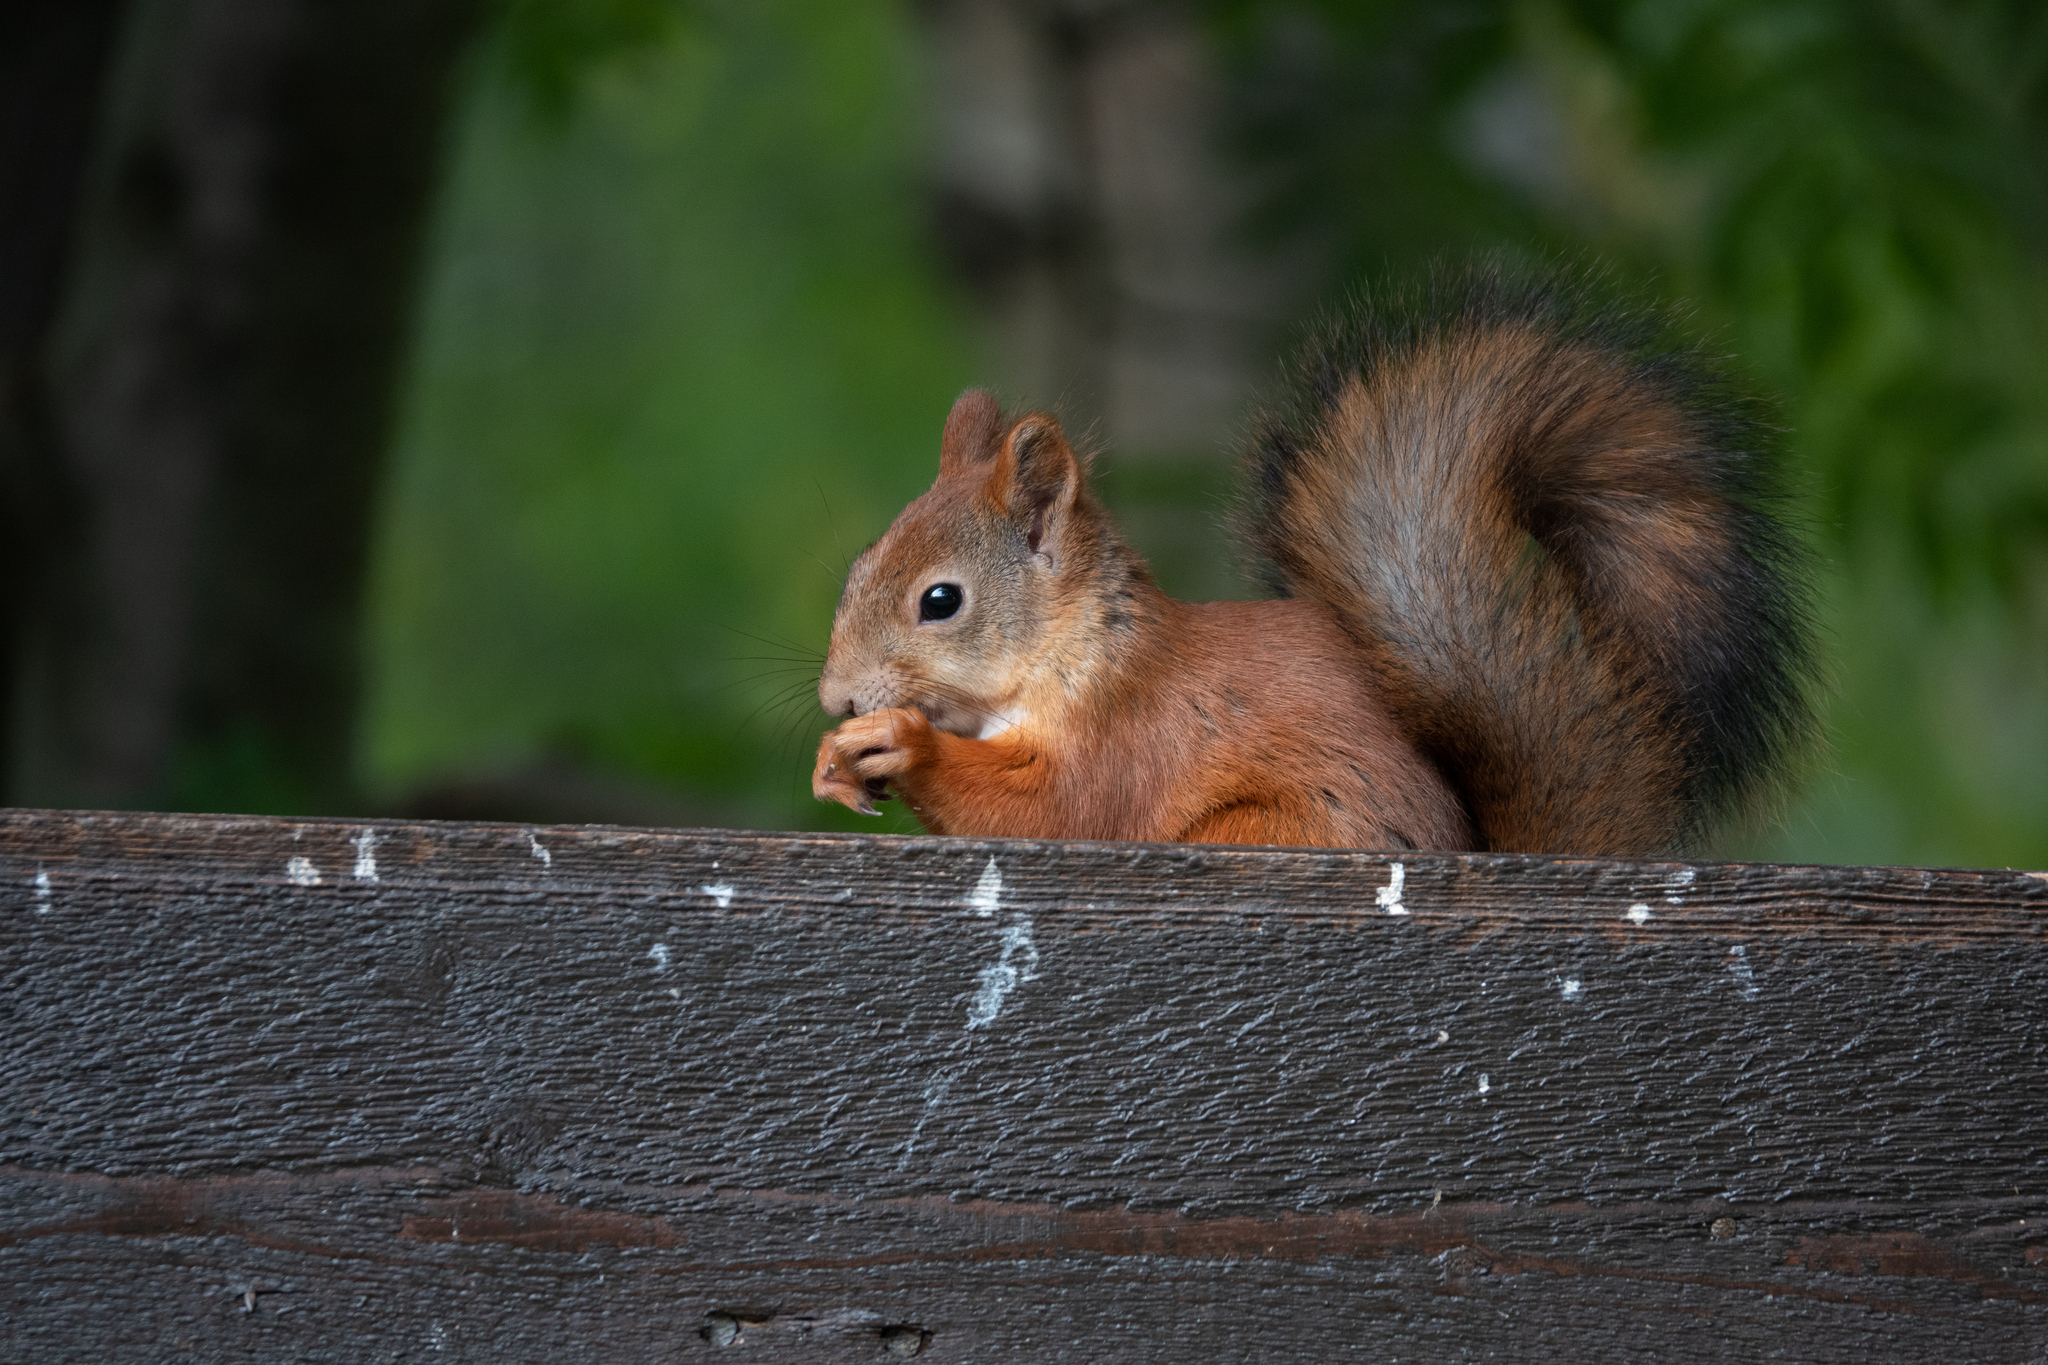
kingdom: Animalia
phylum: Chordata
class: Mammalia
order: Rodentia
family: Sciuridae
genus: Sciurus
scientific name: Sciurus vulgaris
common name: Eurasian red squirrel
